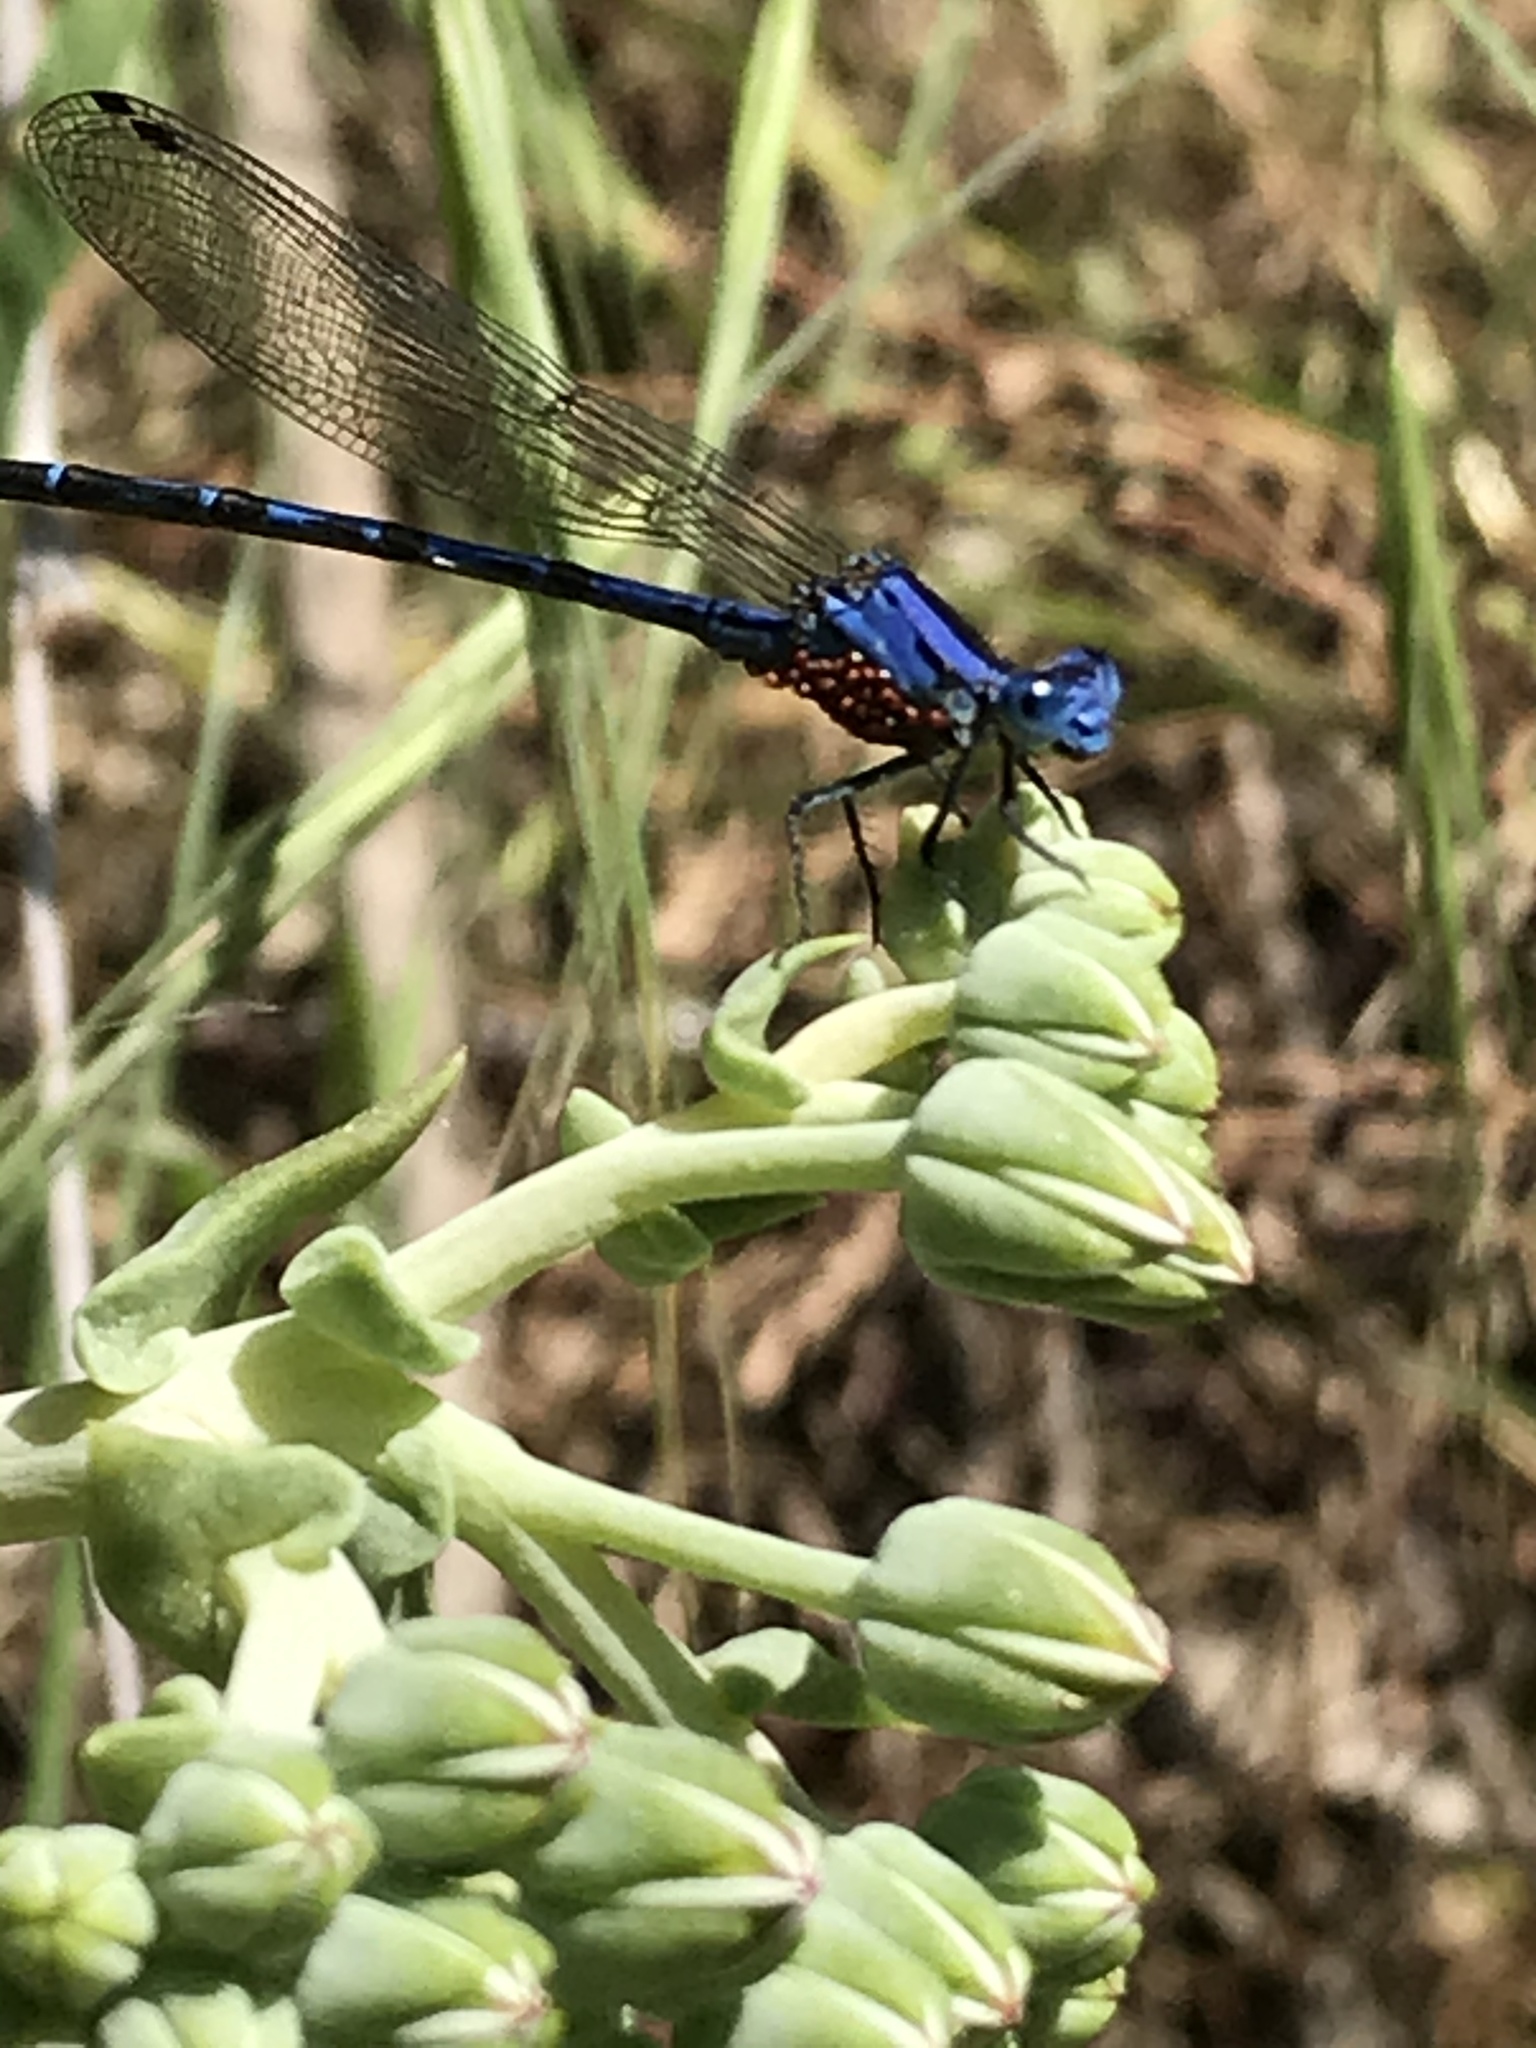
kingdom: Animalia
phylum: Arthropoda
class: Insecta
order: Odonata
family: Coenagrionidae
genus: Argia
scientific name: Argia vivida
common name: Vivid dancer
